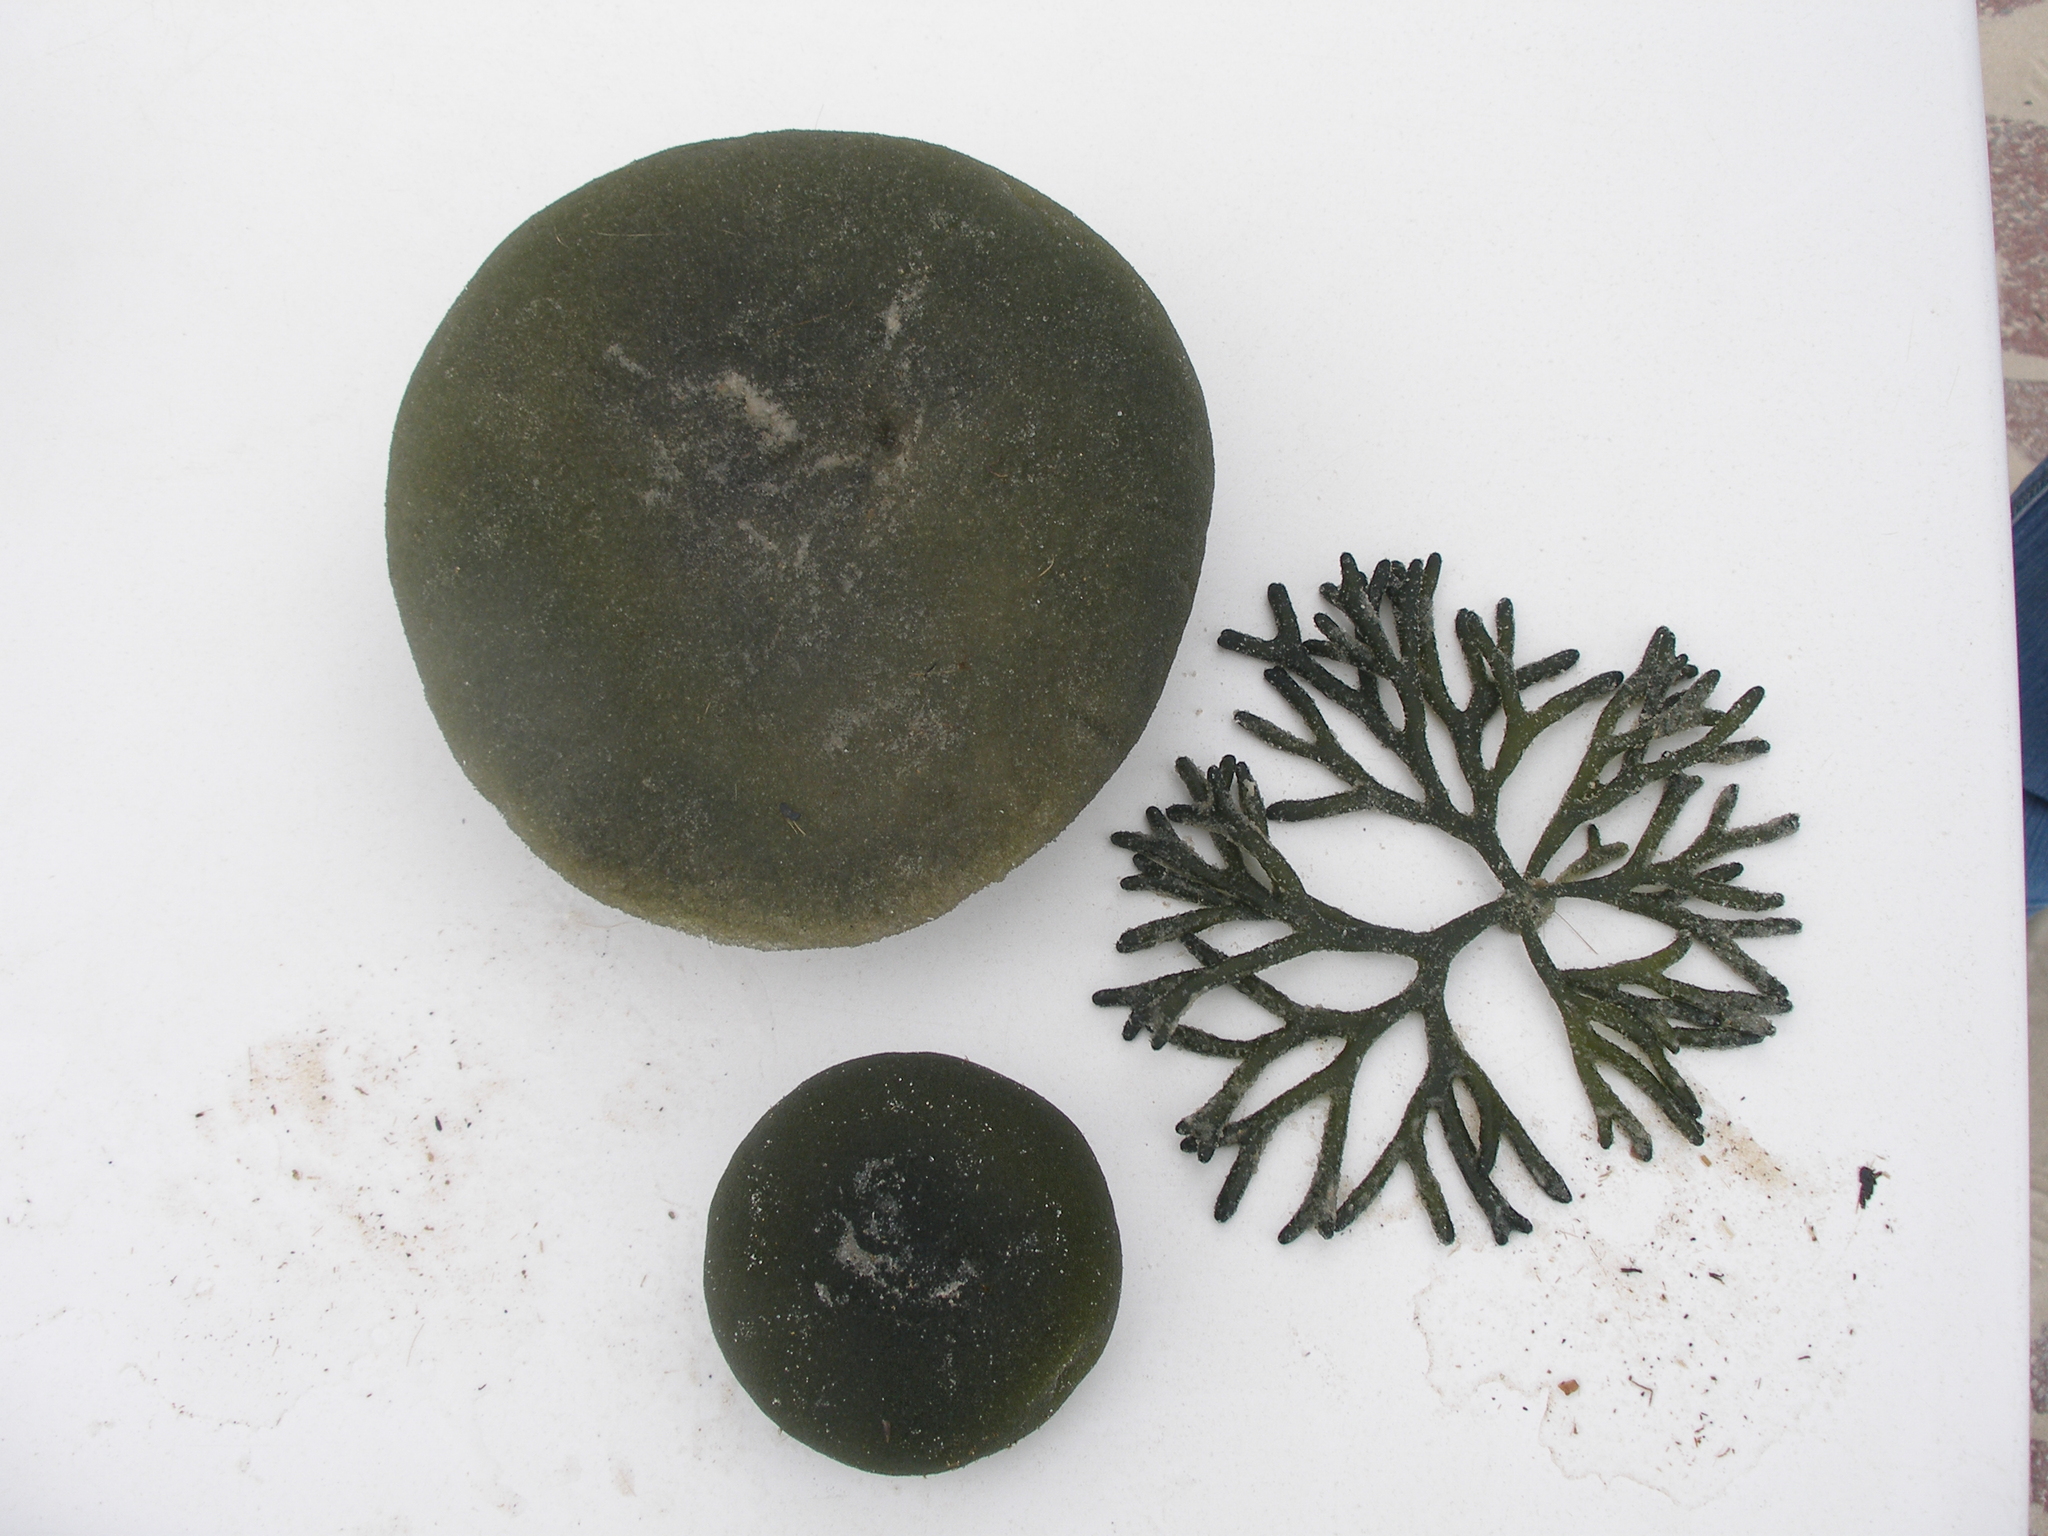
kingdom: Plantae
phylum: Chlorophyta
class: Ulvophyceae
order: Bryopsidales
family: Codiaceae
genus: Codium
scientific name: Codium fragile
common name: Dead man's fingers
